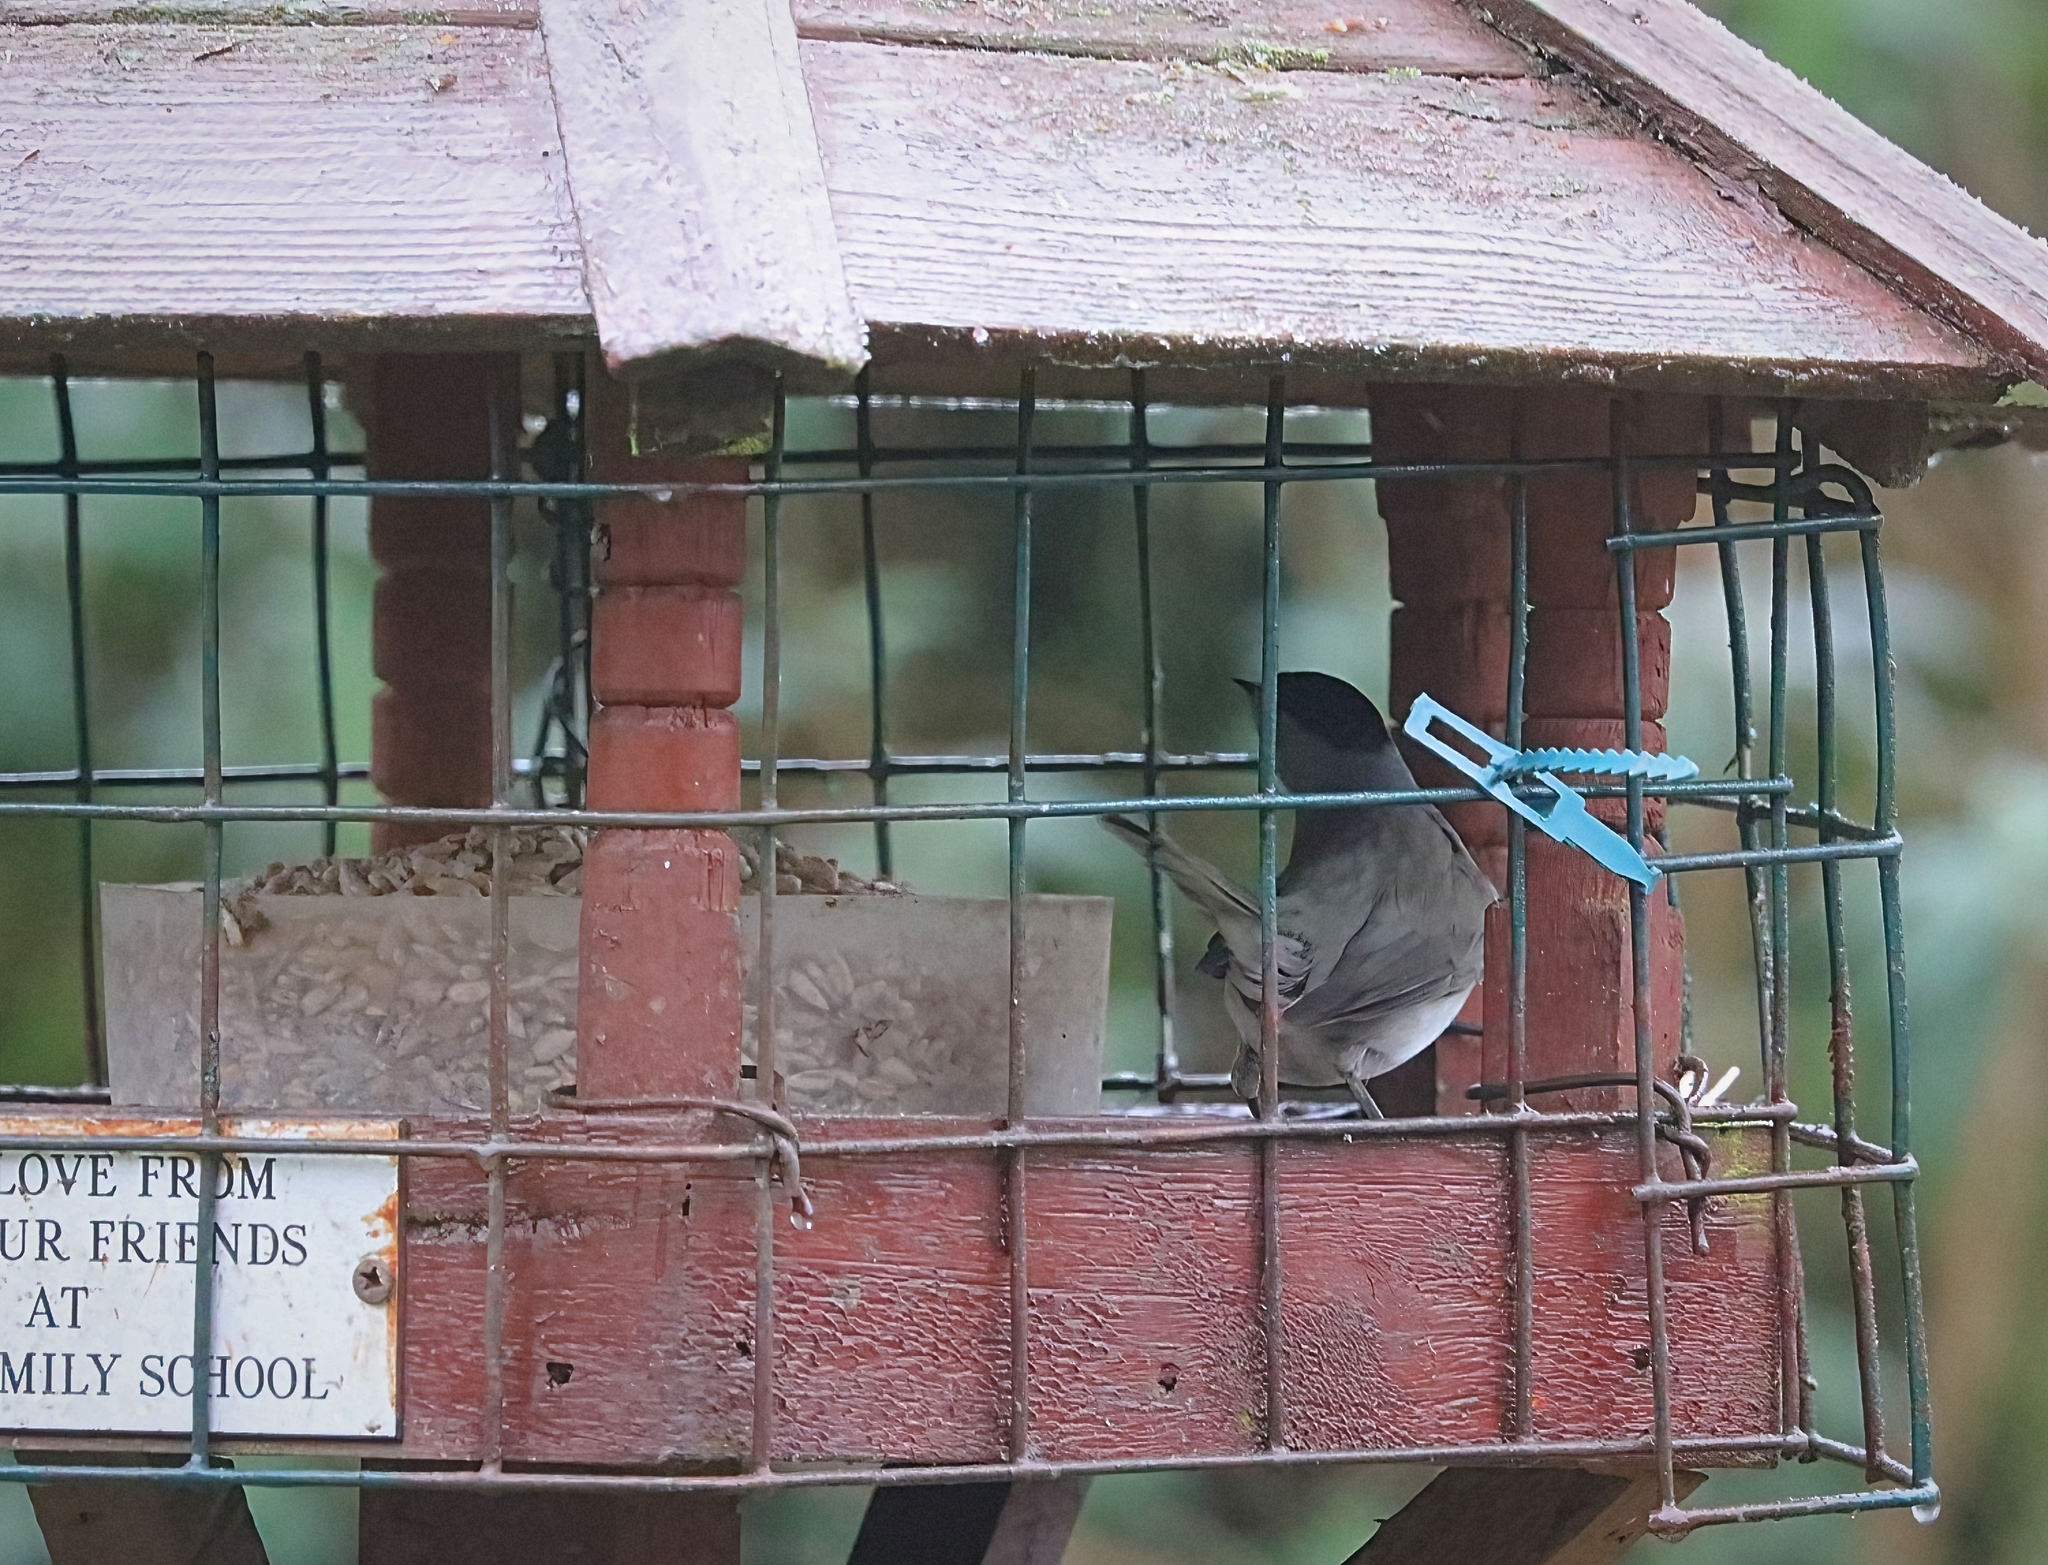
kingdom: Animalia
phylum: Chordata
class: Aves
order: Passeriformes
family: Sylviidae
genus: Sylvia
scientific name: Sylvia atricapilla
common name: Eurasian blackcap
